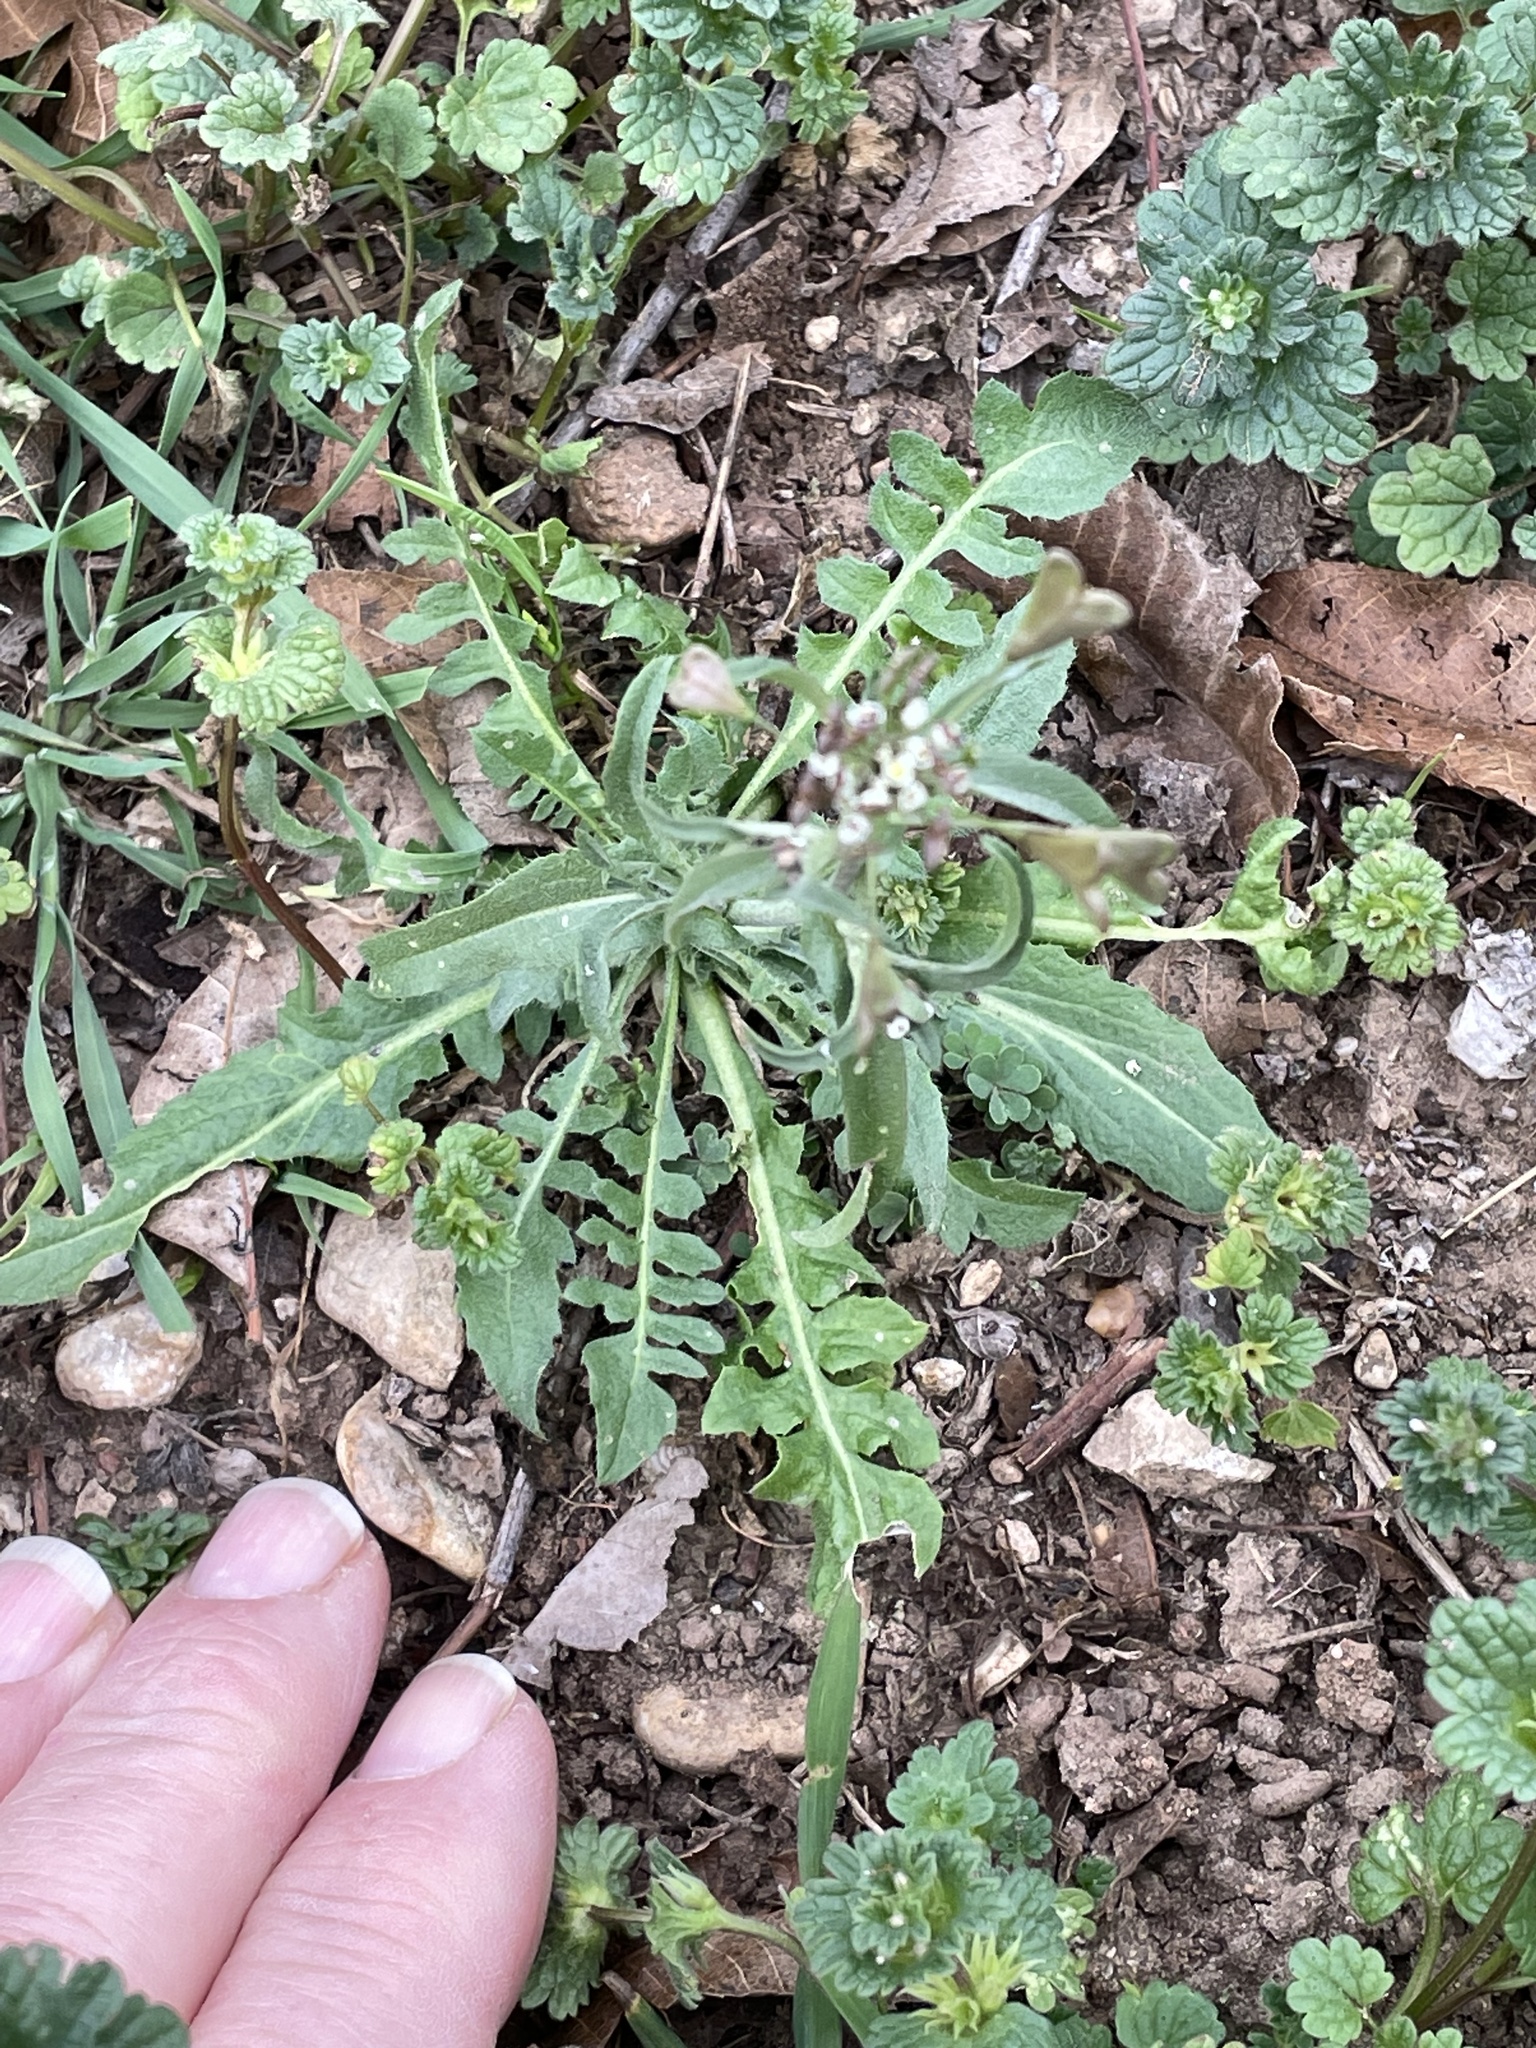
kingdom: Plantae
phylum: Tracheophyta
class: Magnoliopsida
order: Brassicales
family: Brassicaceae
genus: Capsella
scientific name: Capsella bursa-pastoris
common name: Shepherd's purse
